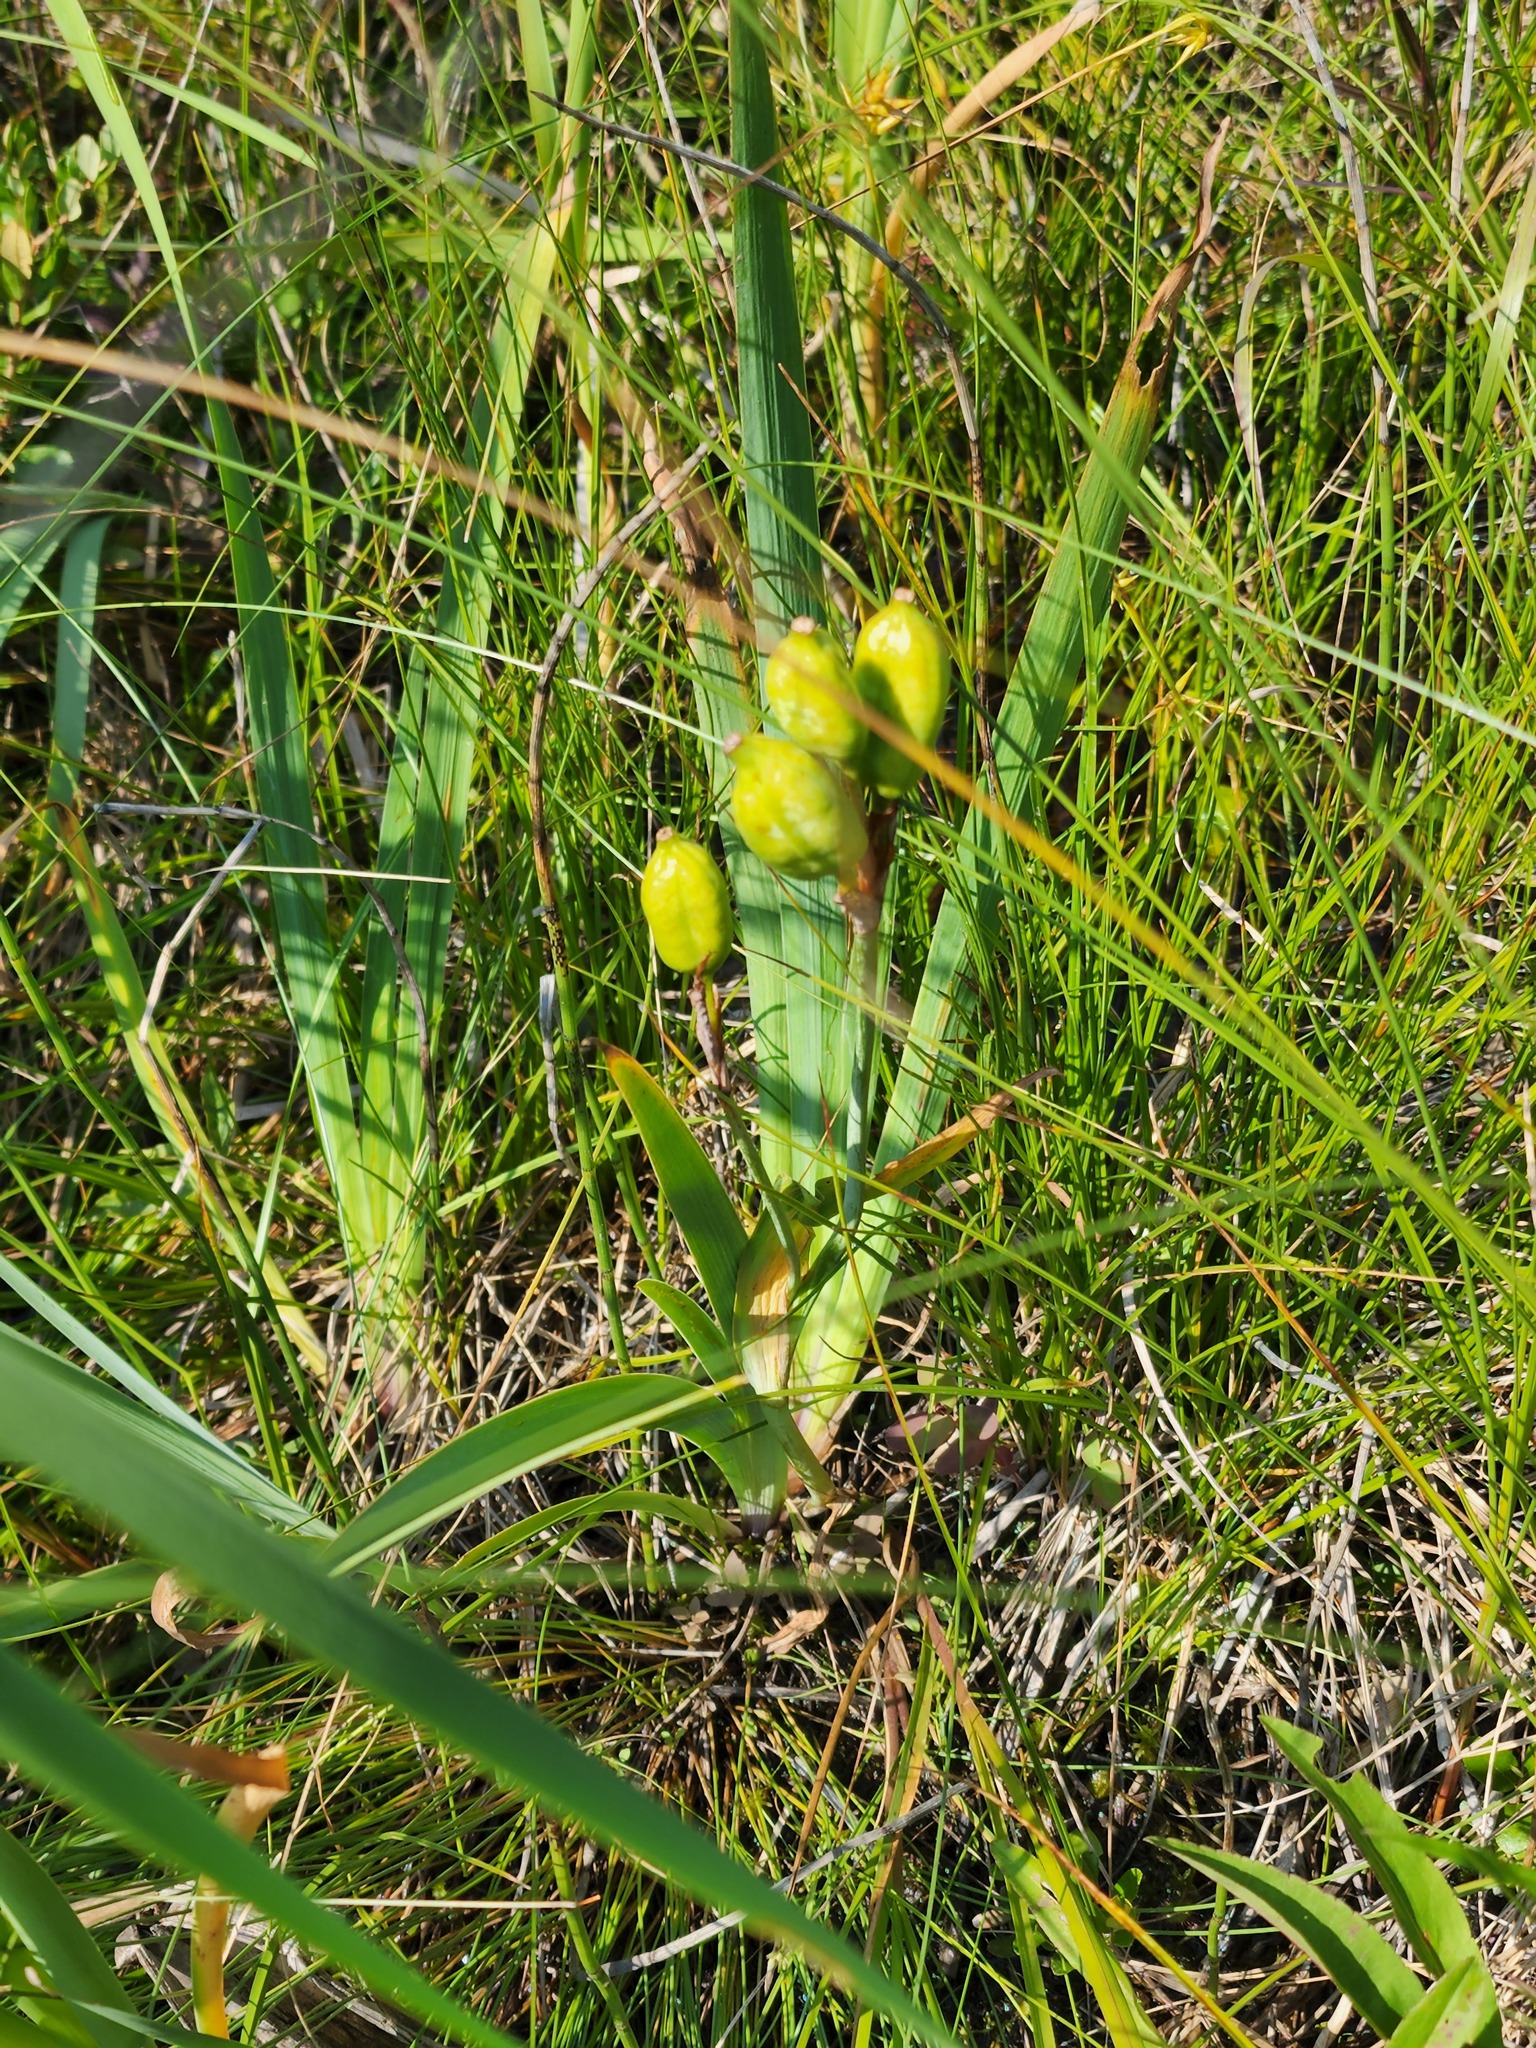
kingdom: Plantae
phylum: Tracheophyta
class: Liliopsida
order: Asparagales
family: Iridaceae
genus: Iris
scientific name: Iris versicolor
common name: Purple iris
